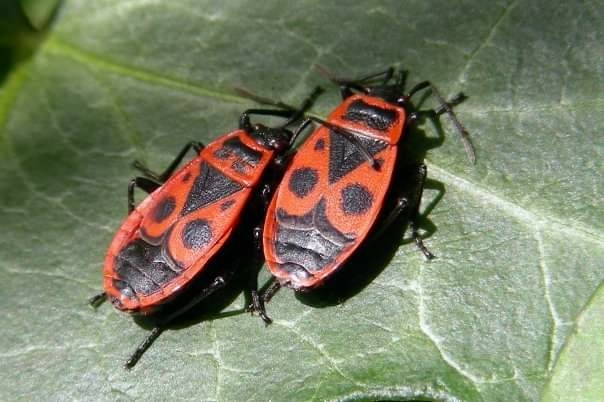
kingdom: Animalia
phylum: Arthropoda
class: Insecta
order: Hemiptera
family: Pyrrhocoridae
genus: Pyrrhocoris
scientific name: Pyrrhocoris apterus
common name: Firebug
